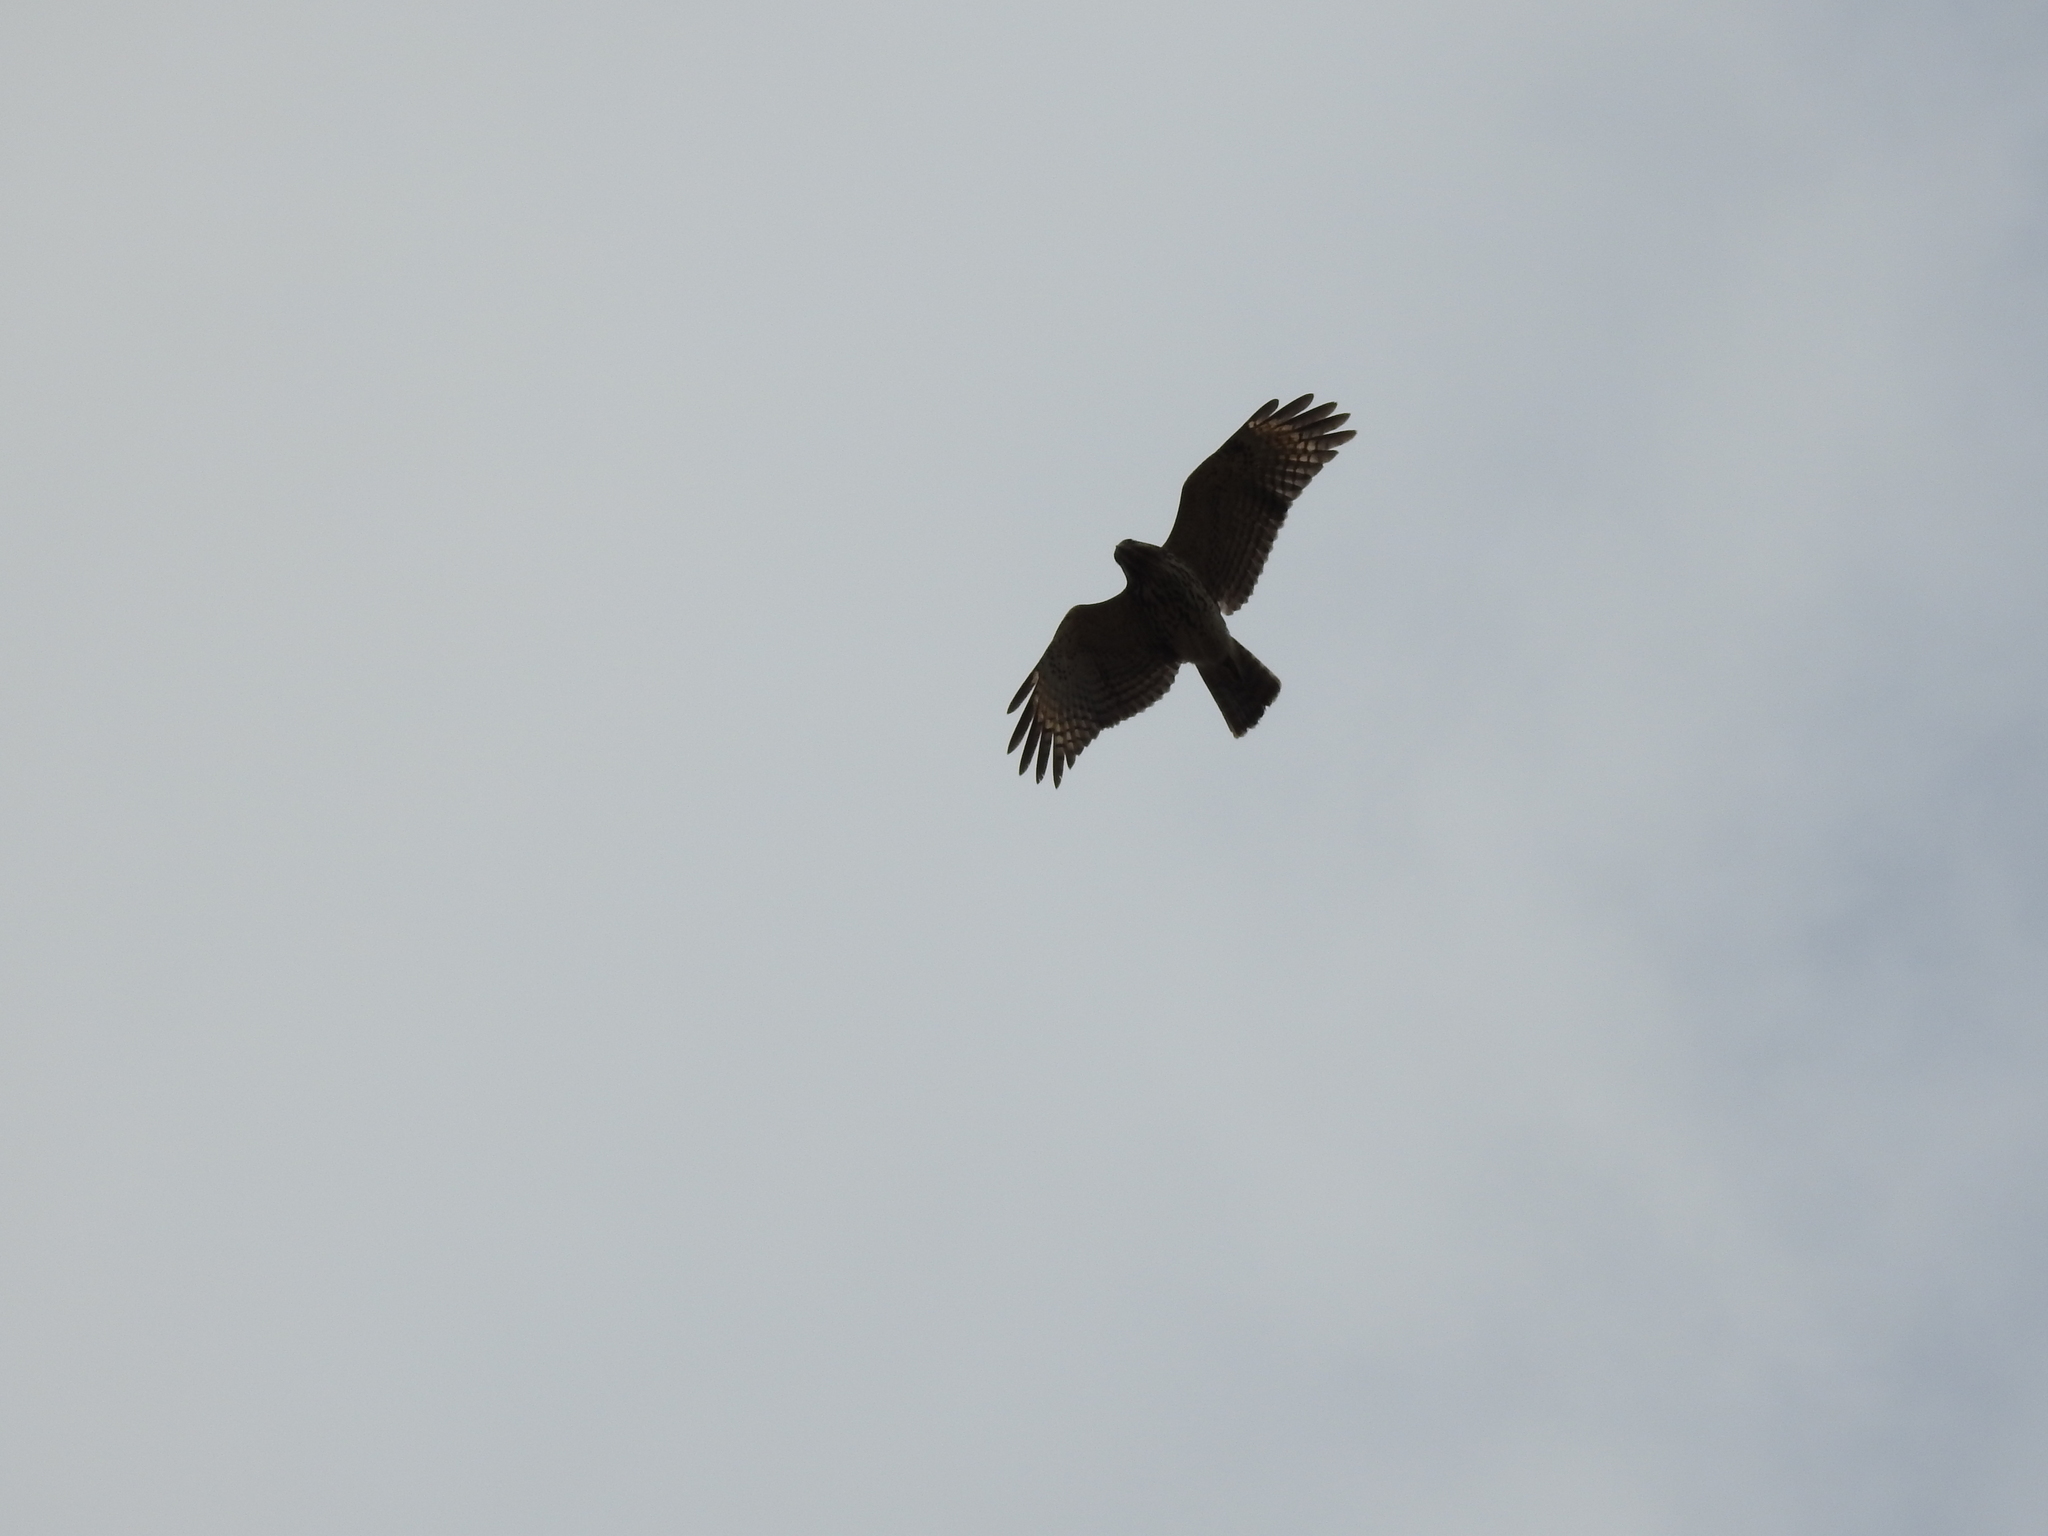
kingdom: Animalia
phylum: Chordata
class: Aves
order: Accipitriformes
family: Accipitridae
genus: Buteo
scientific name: Buteo lineatus
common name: Red-shouldered hawk
